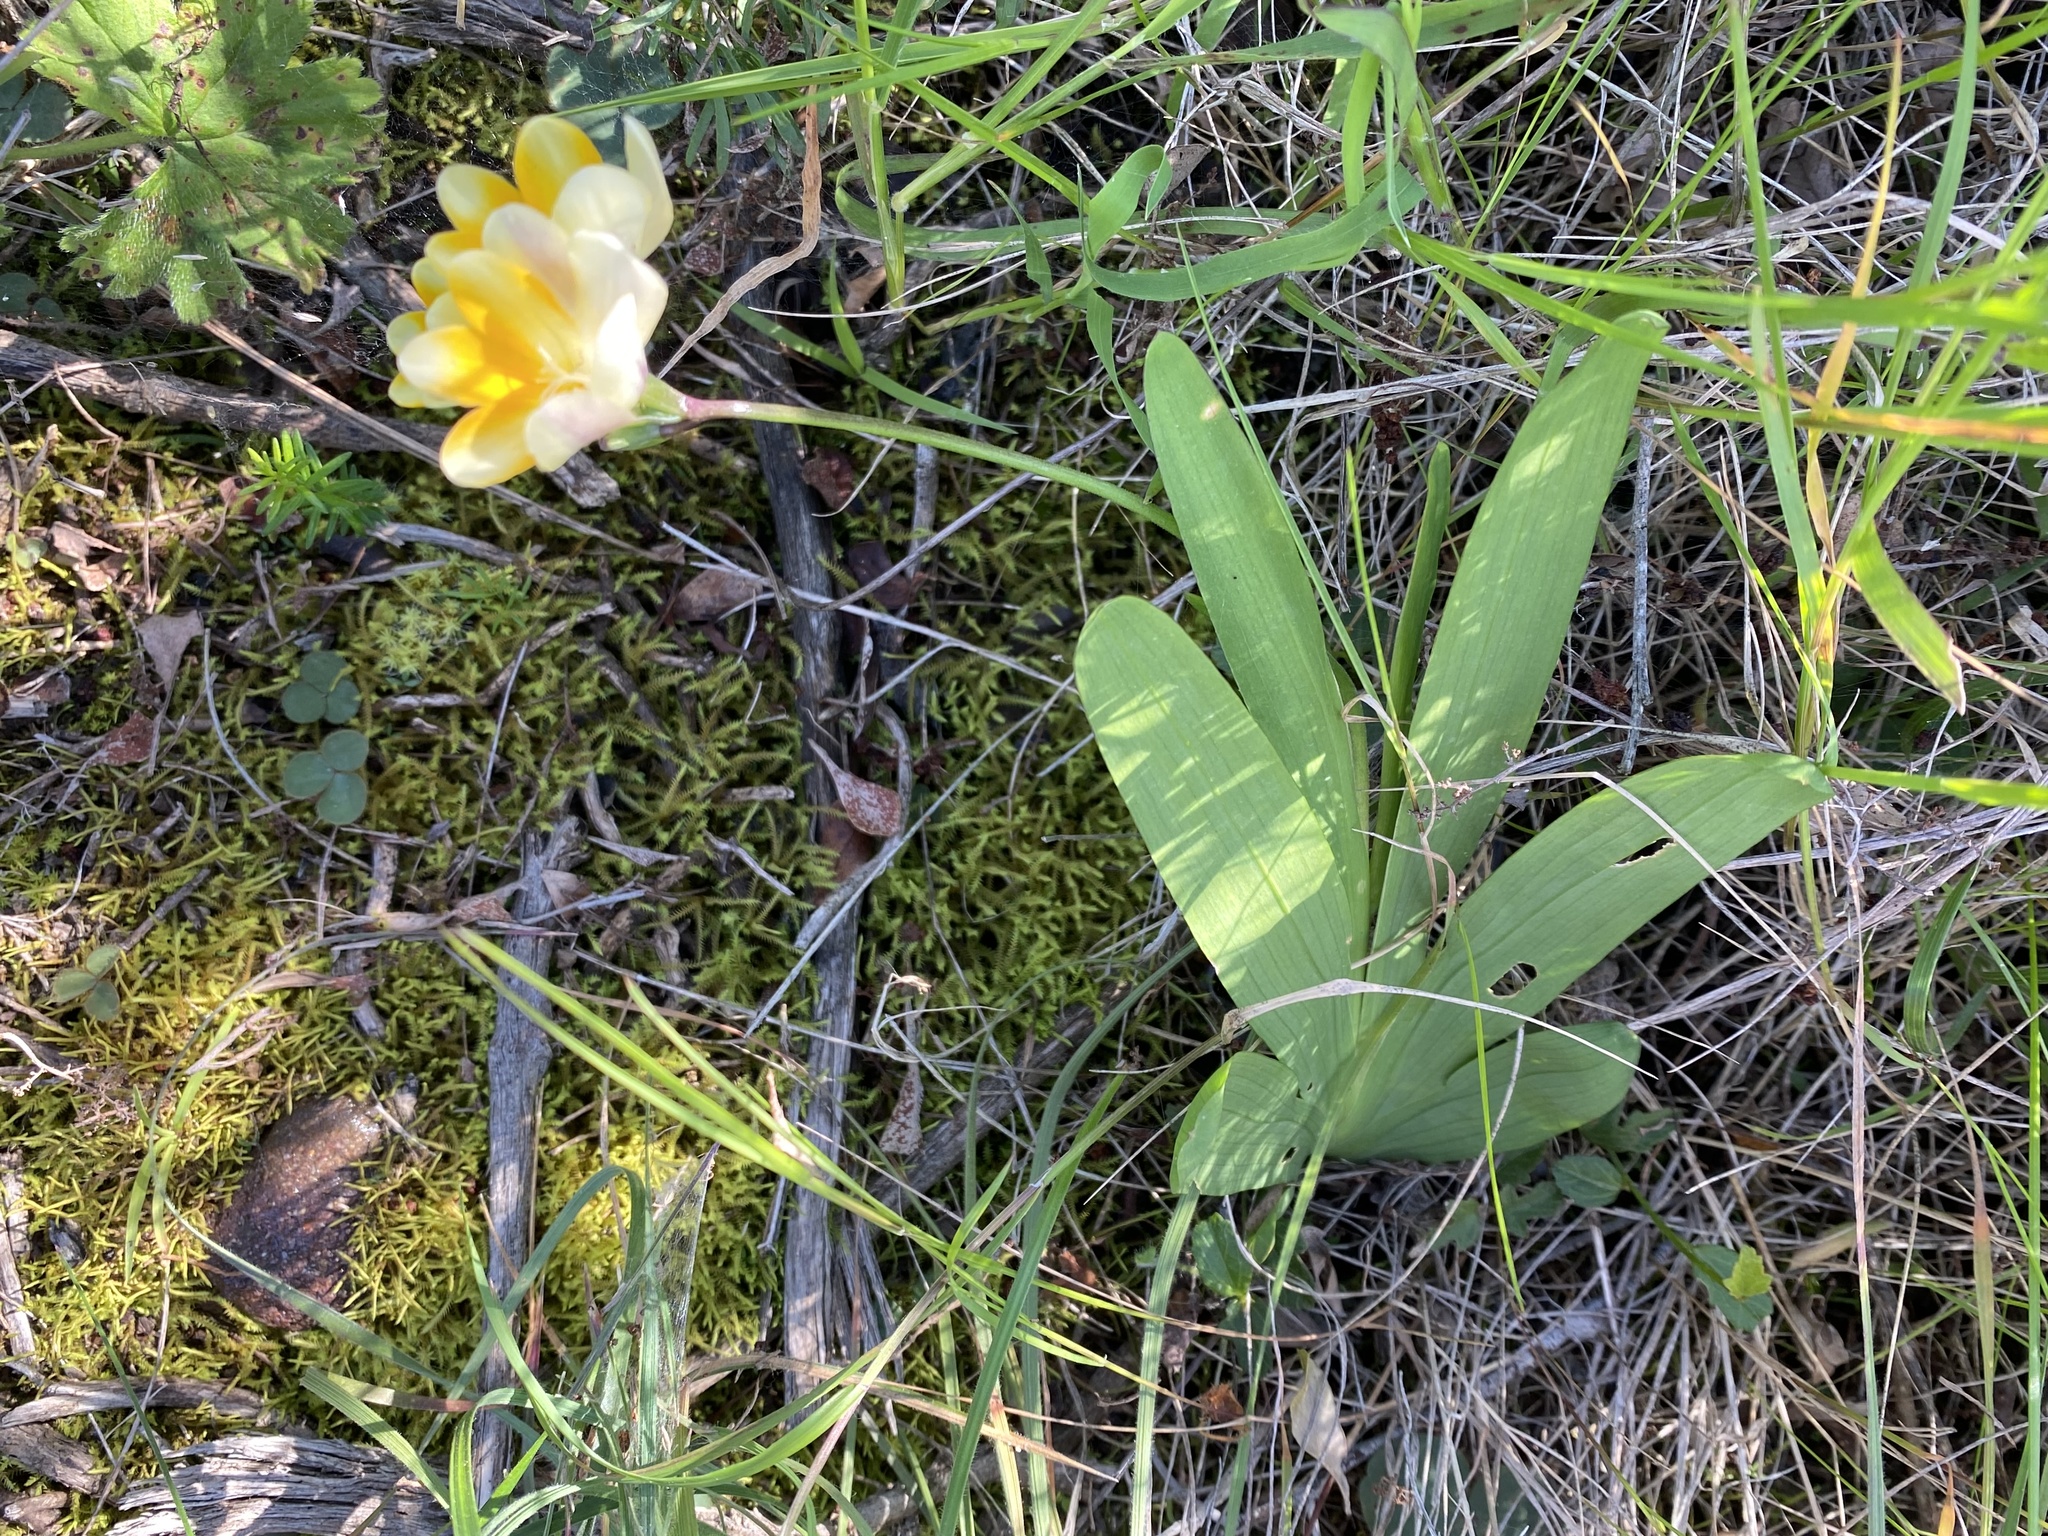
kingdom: Plantae
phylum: Tracheophyta
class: Liliopsida
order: Asparagales
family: Iridaceae
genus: Freesia
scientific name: Freesia fergusoniae
